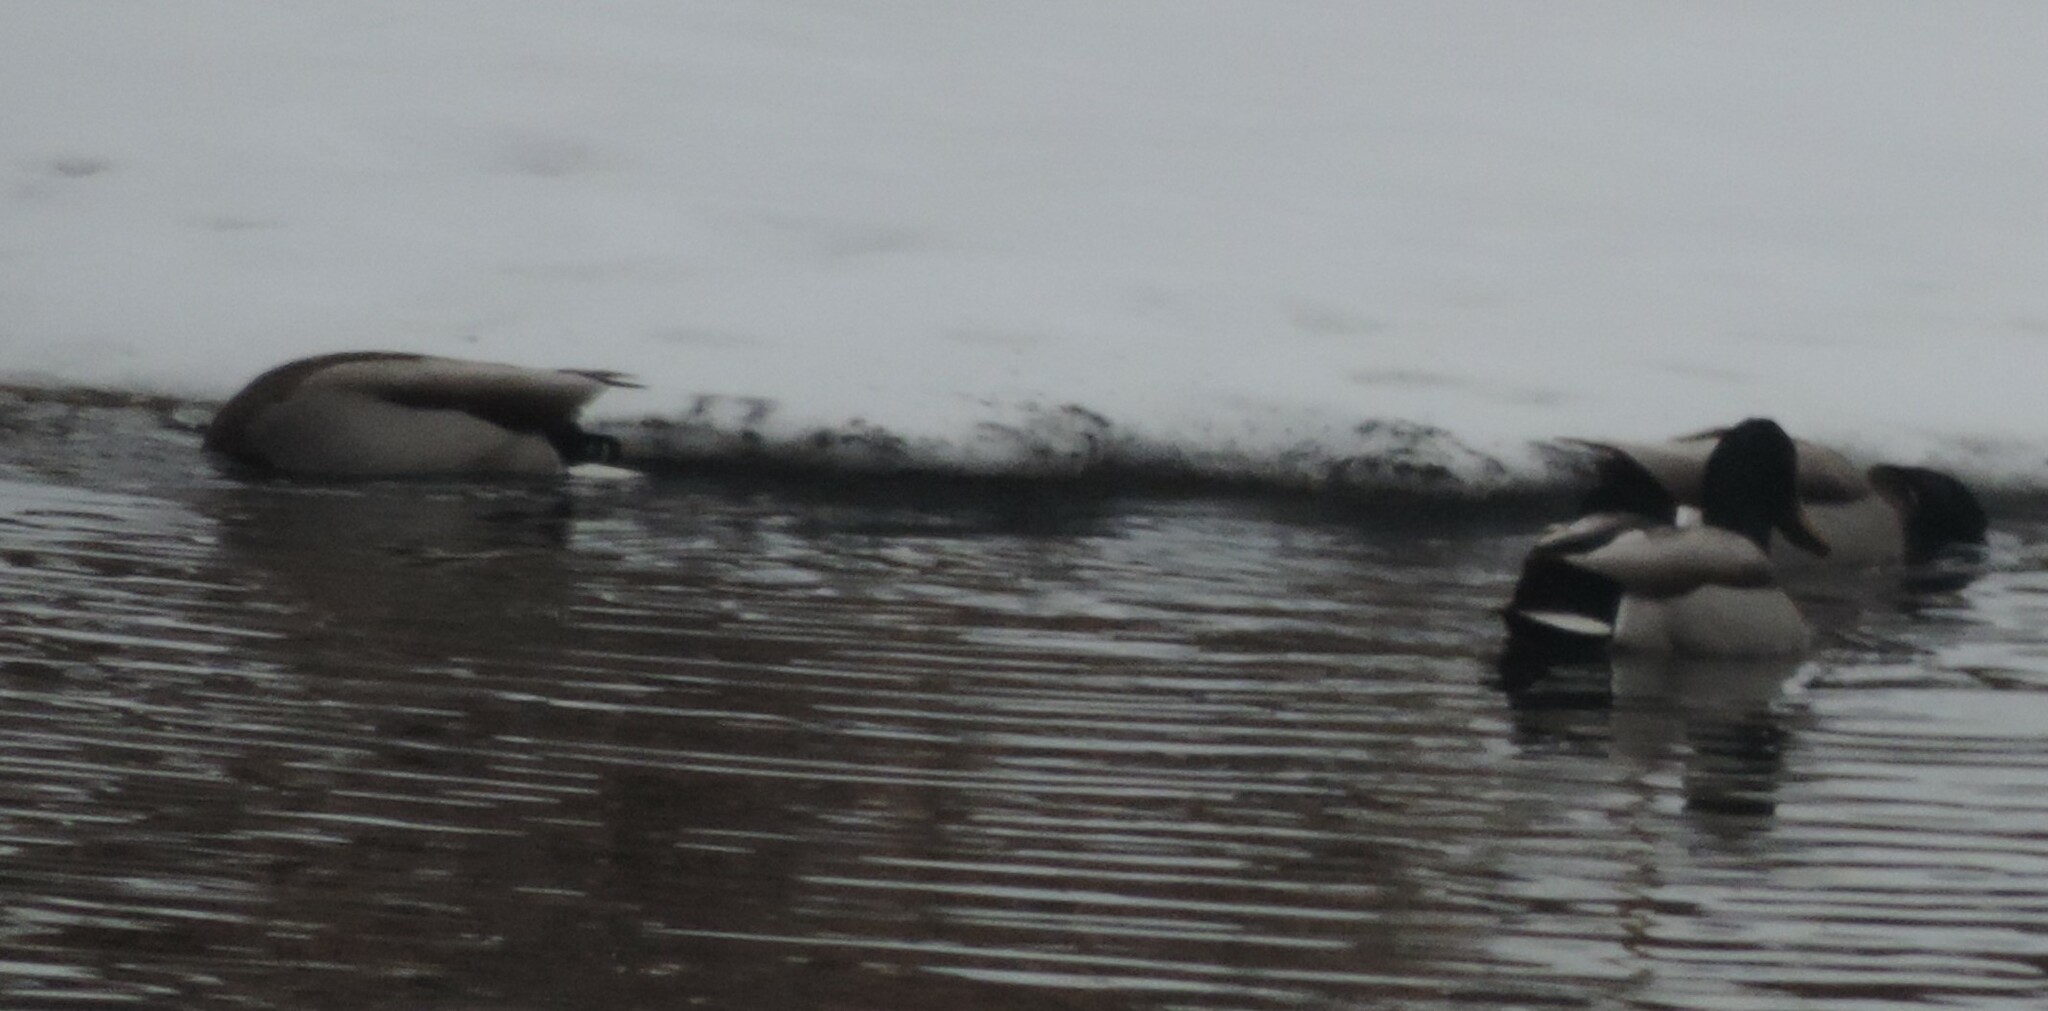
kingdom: Animalia
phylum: Chordata
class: Aves
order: Anseriformes
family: Anatidae
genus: Anas
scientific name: Anas platyrhynchos
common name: Mallard
